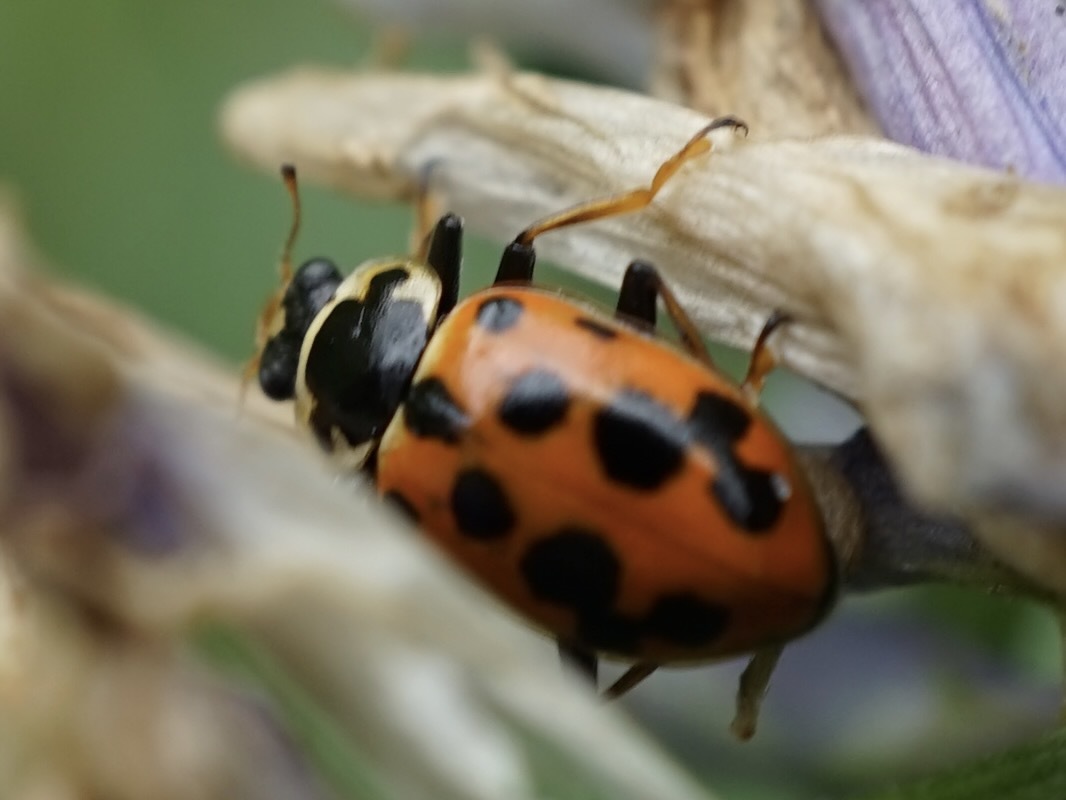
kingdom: Animalia
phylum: Arthropoda
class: Insecta
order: Coleoptera
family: Coccinellidae
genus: Hippodamia
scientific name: Hippodamia tredecimpunctata
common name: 13-spot ladybird
